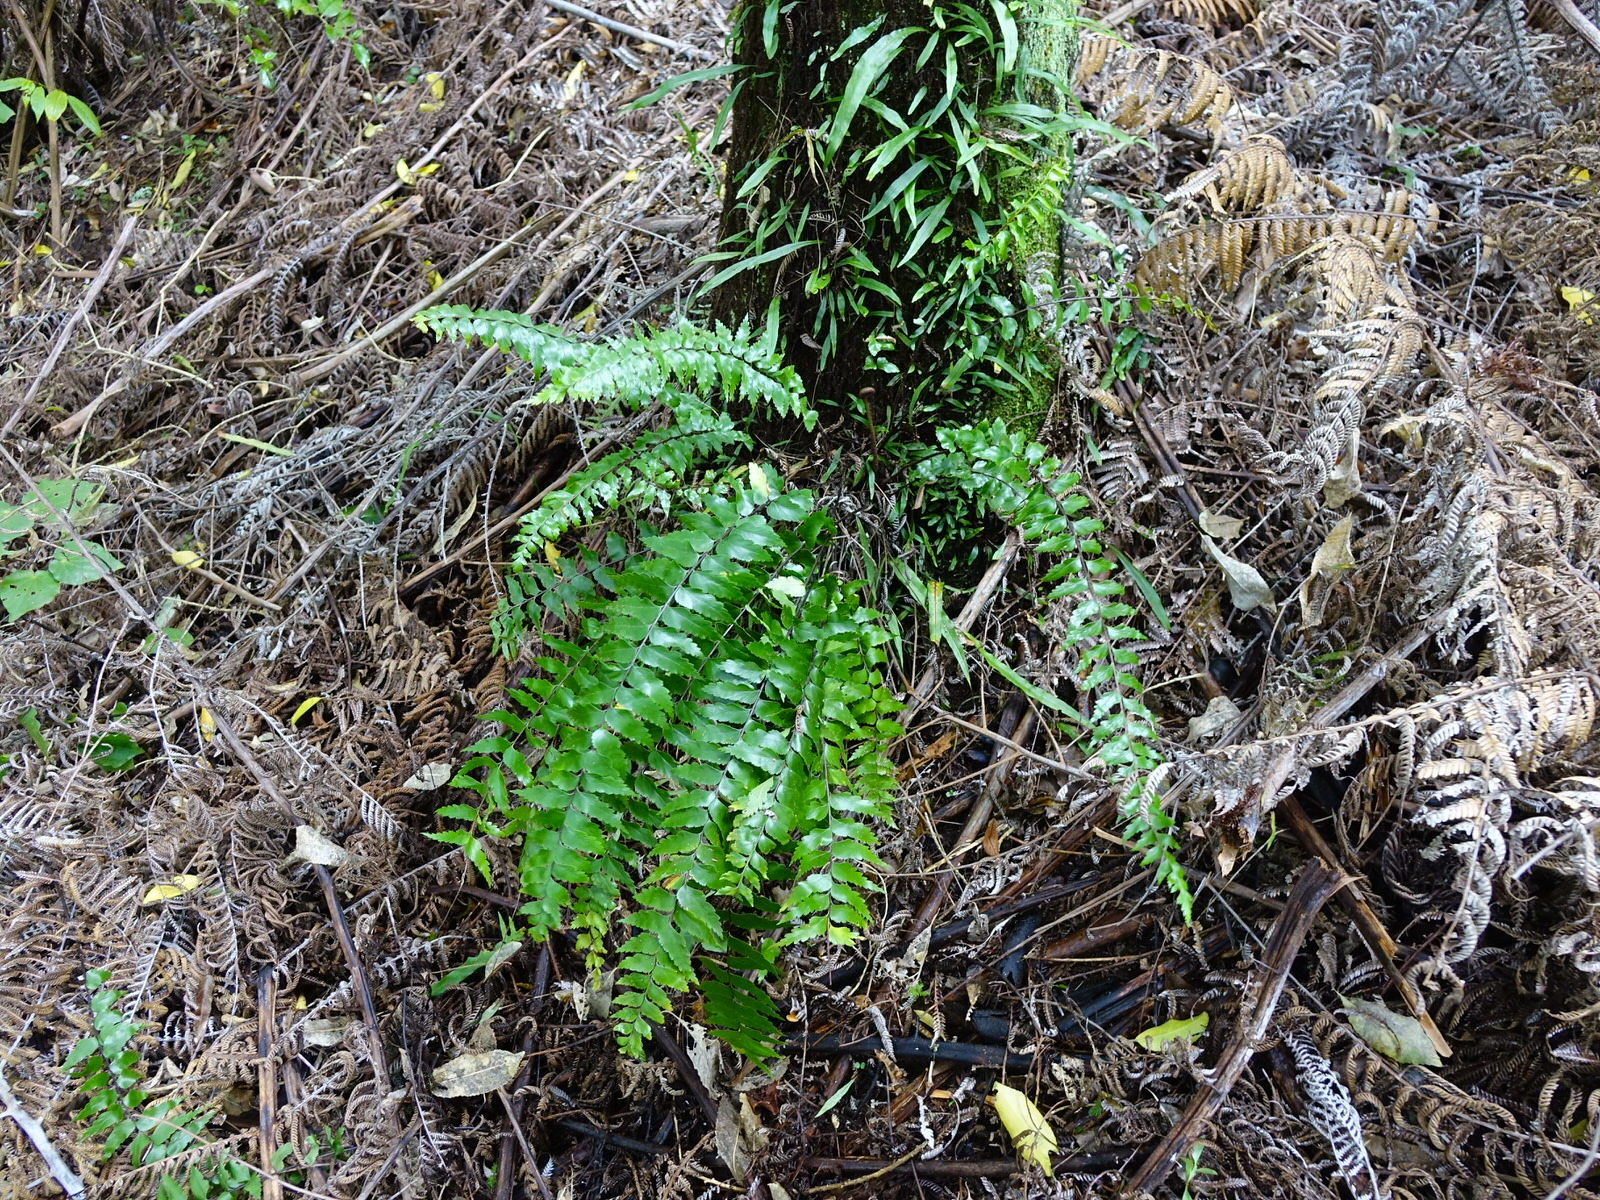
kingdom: Plantae
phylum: Tracheophyta
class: Polypodiopsida
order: Polypodiales
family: Aspleniaceae
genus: Asplenium
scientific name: Asplenium polyodon
